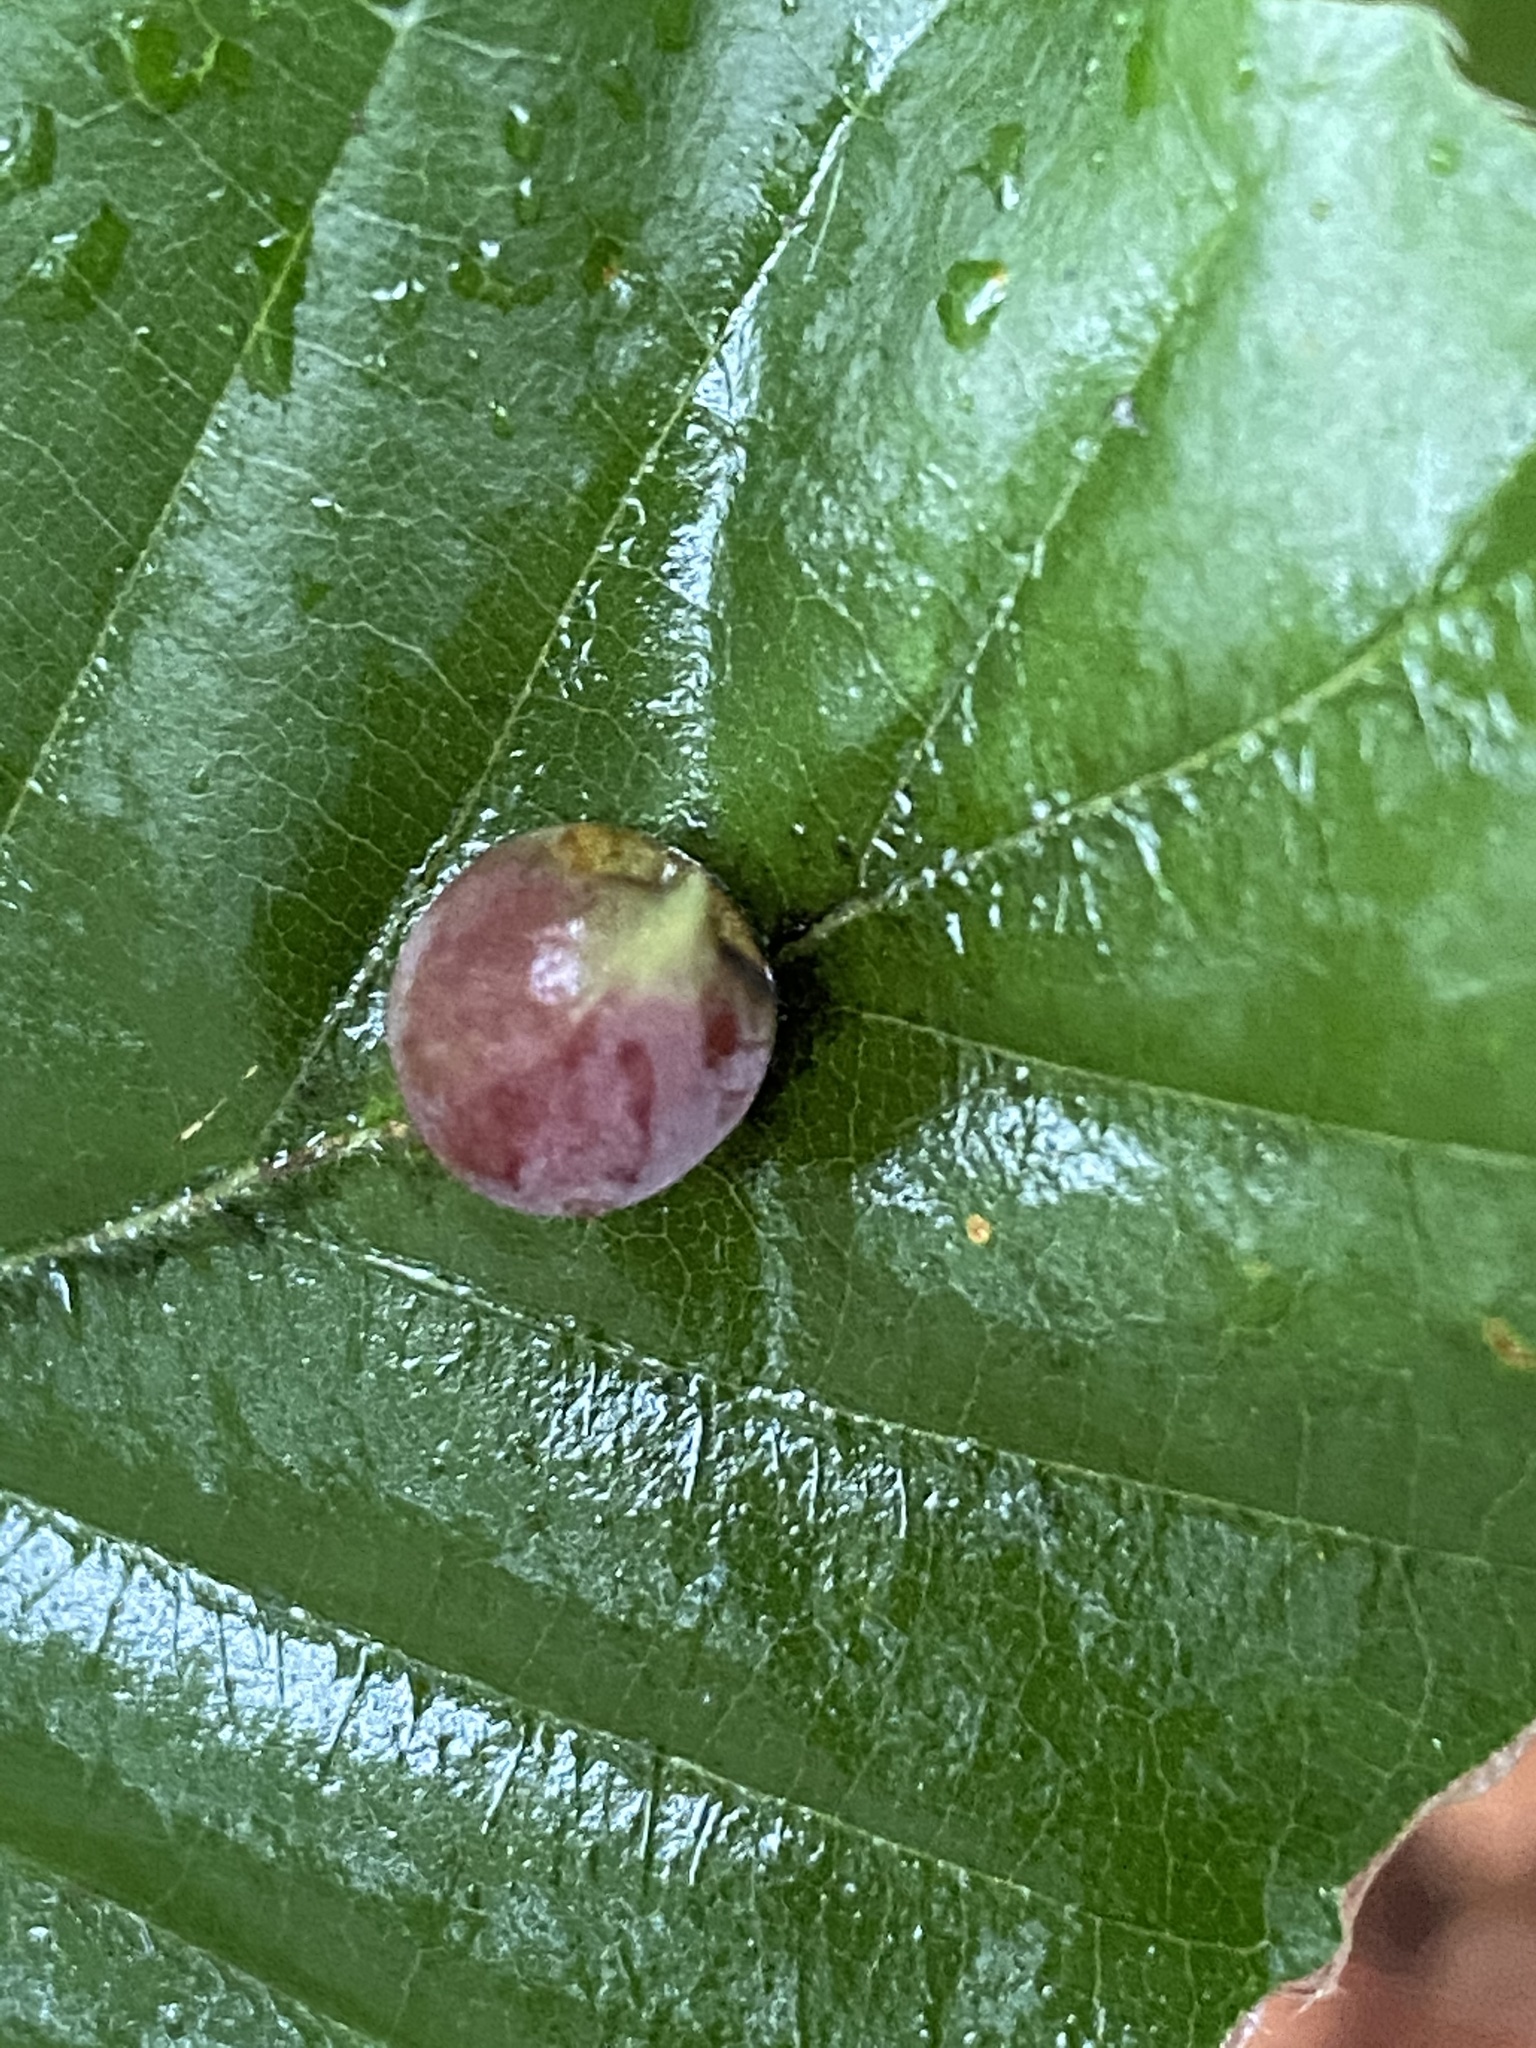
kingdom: Animalia
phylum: Arthropoda
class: Insecta
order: Diptera
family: Cecidomyiidae
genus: Mikiola
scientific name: Mikiola fagi
